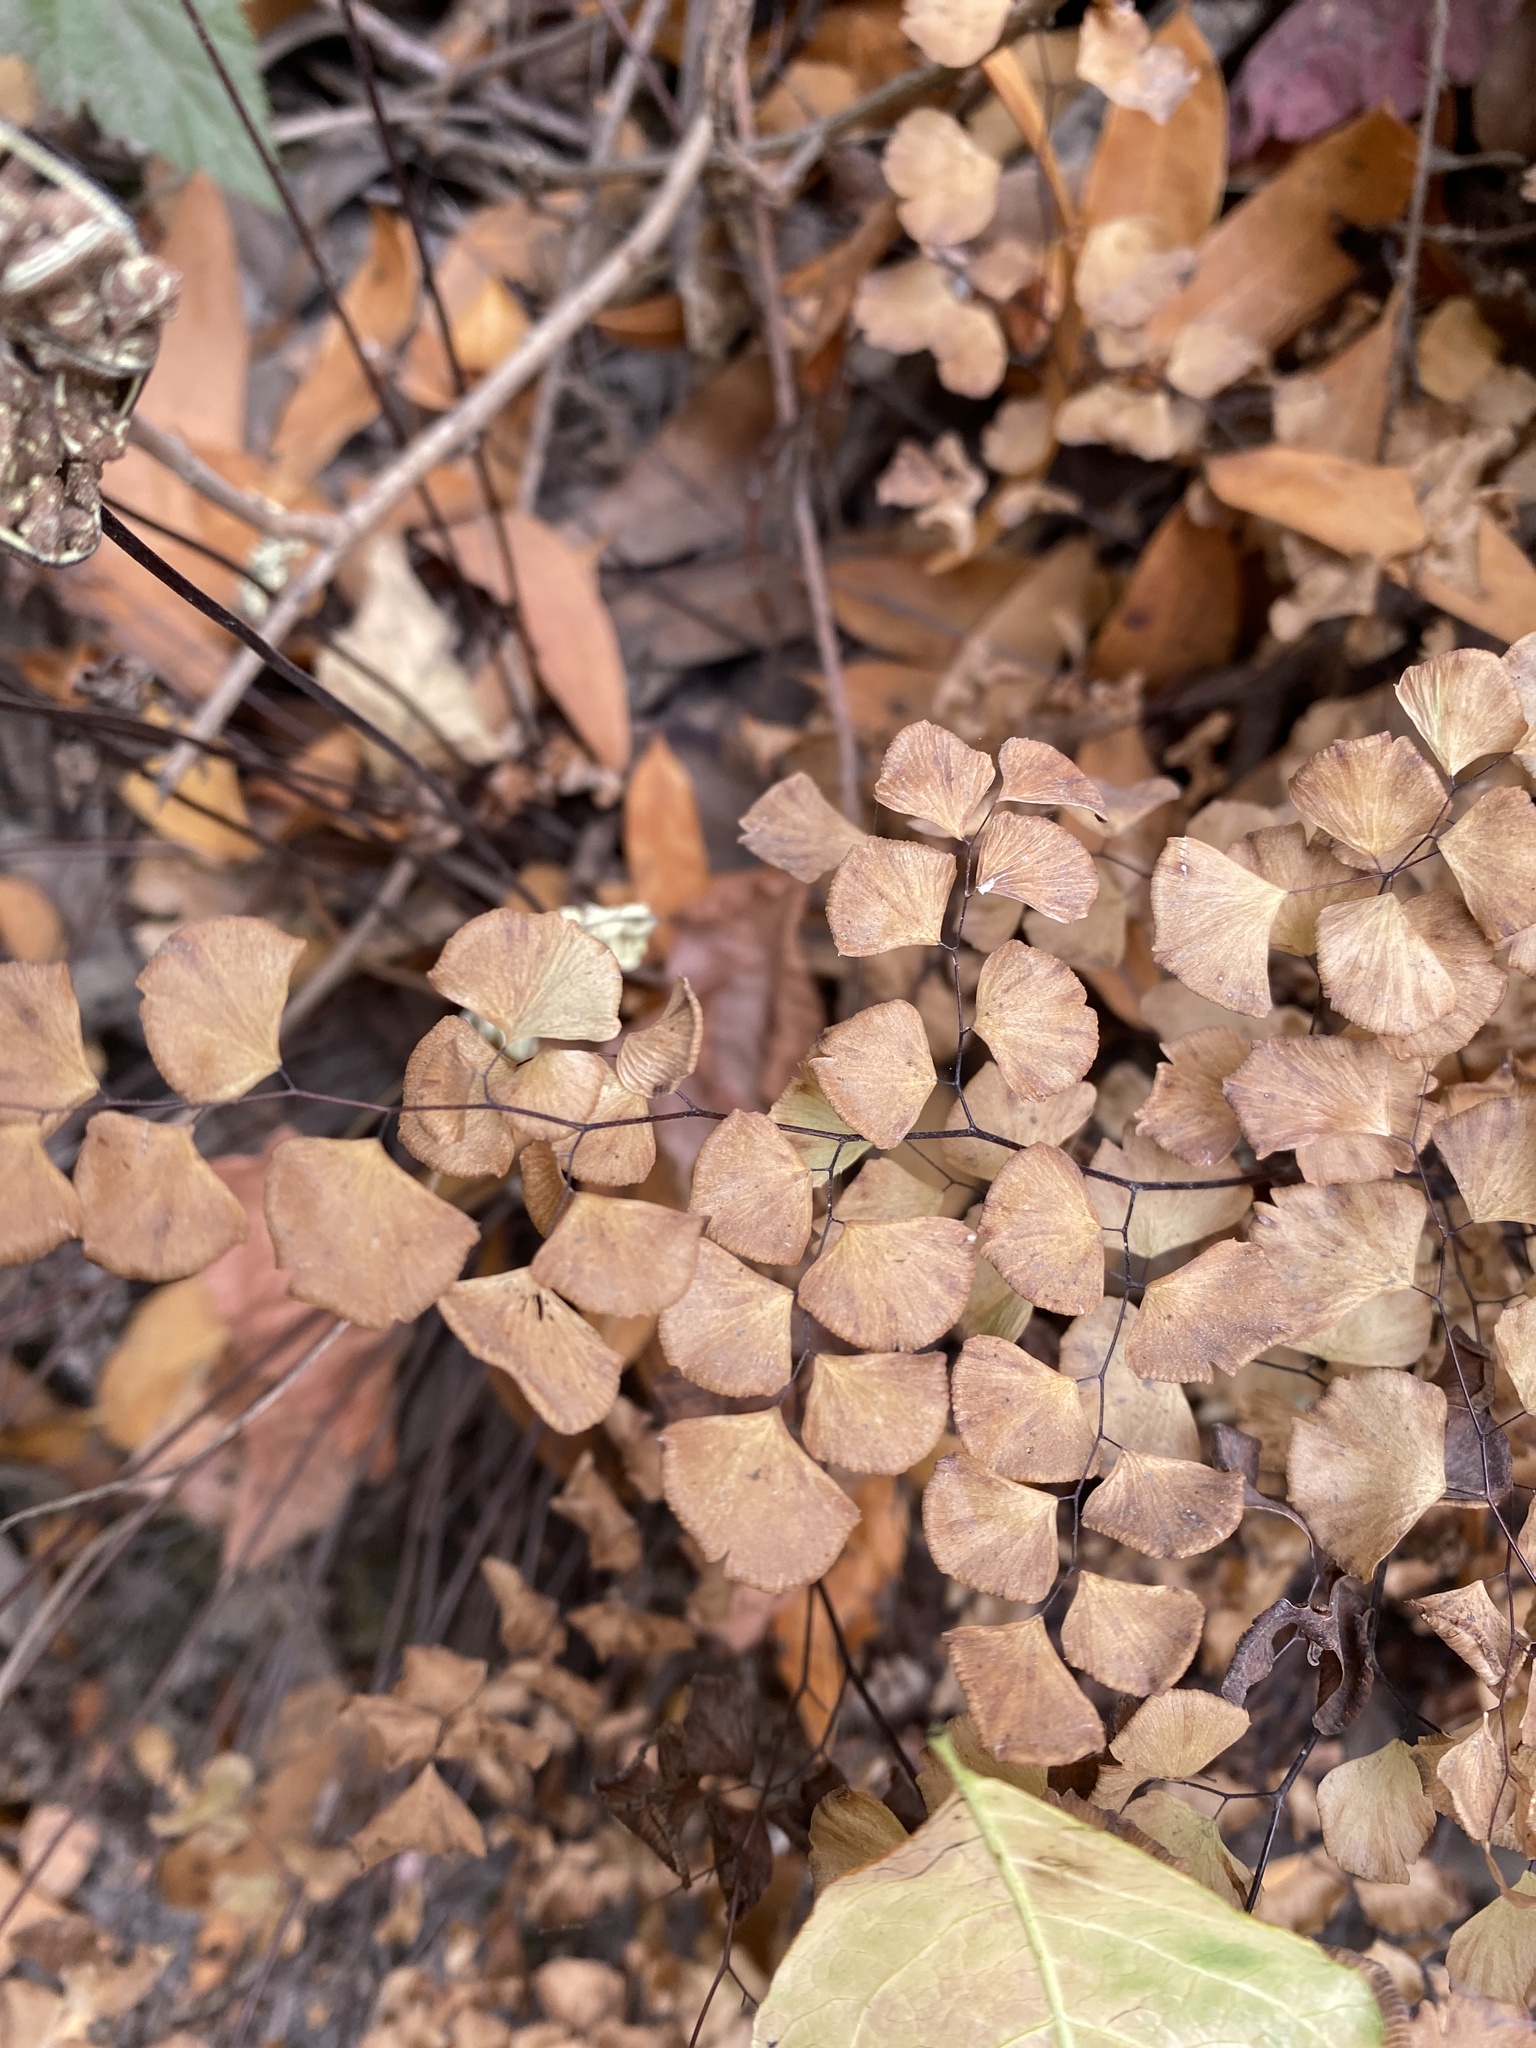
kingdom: Plantae
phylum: Tracheophyta
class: Polypodiopsida
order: Polypodiales
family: Pteridaceae
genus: Adiantum
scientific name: Adiantum jordanii
